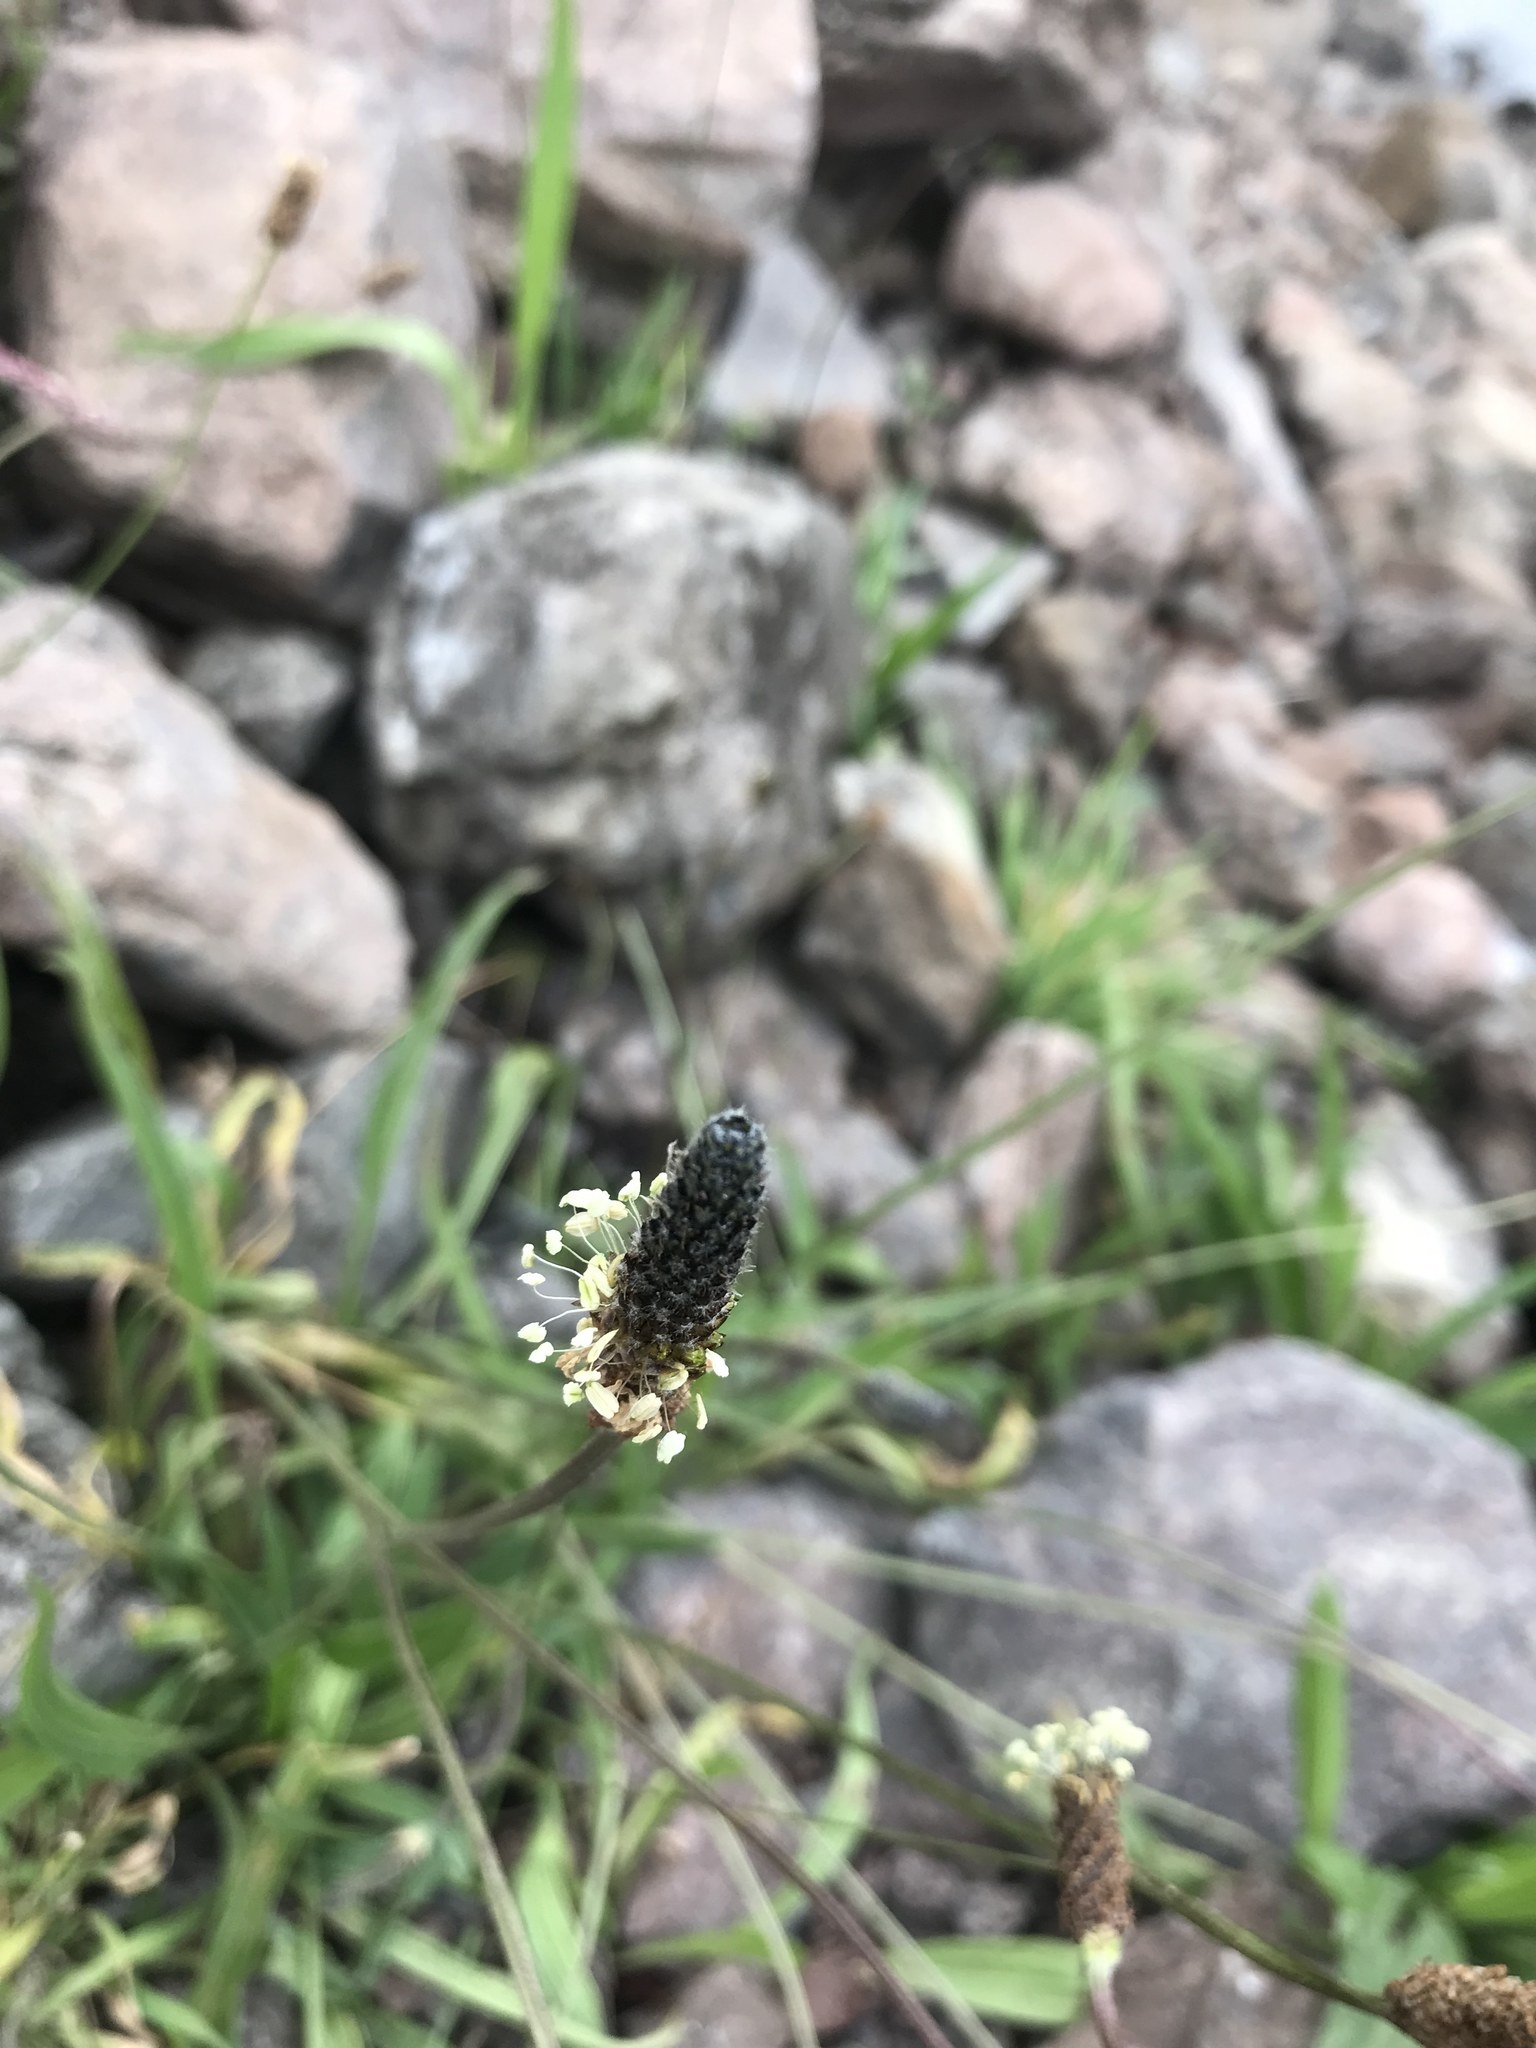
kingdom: Plantae
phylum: Tracheophyta
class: Magnoliopsida
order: Lamiales
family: Plantaginaceae
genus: Plantago
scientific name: Plantago lanceolata
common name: Ribwort plantain
